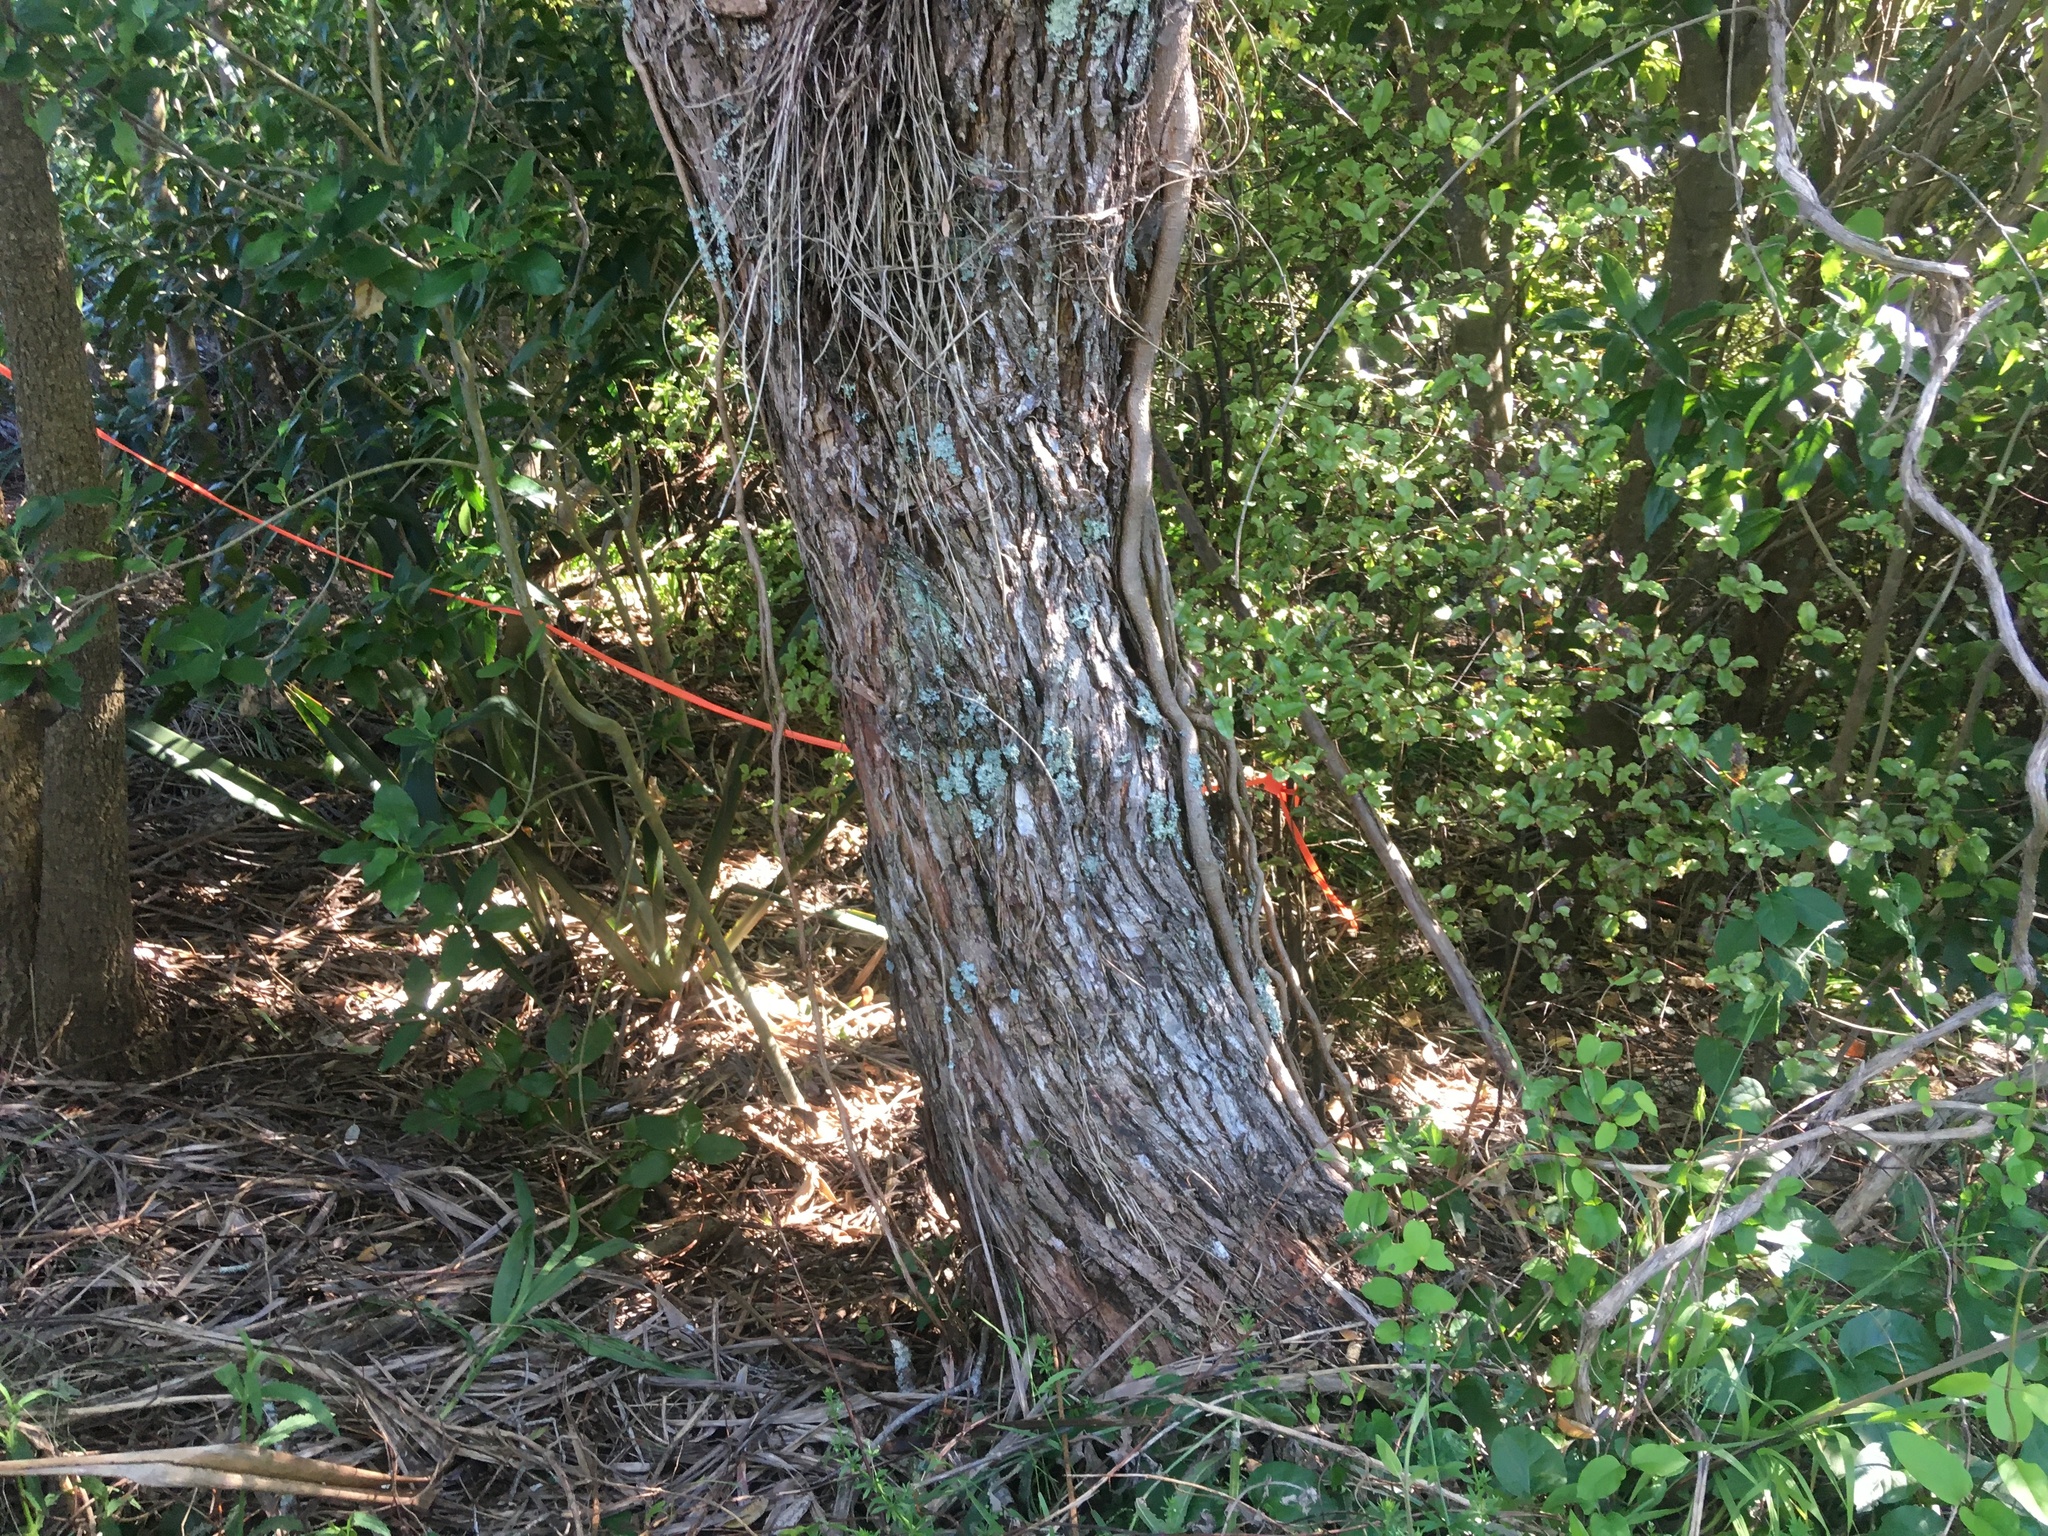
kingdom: Plantae
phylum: Tracheophyta
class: Magnoliopsida
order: Ericales
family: Primulaceae
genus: Myrsine
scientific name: Myrsine australis
